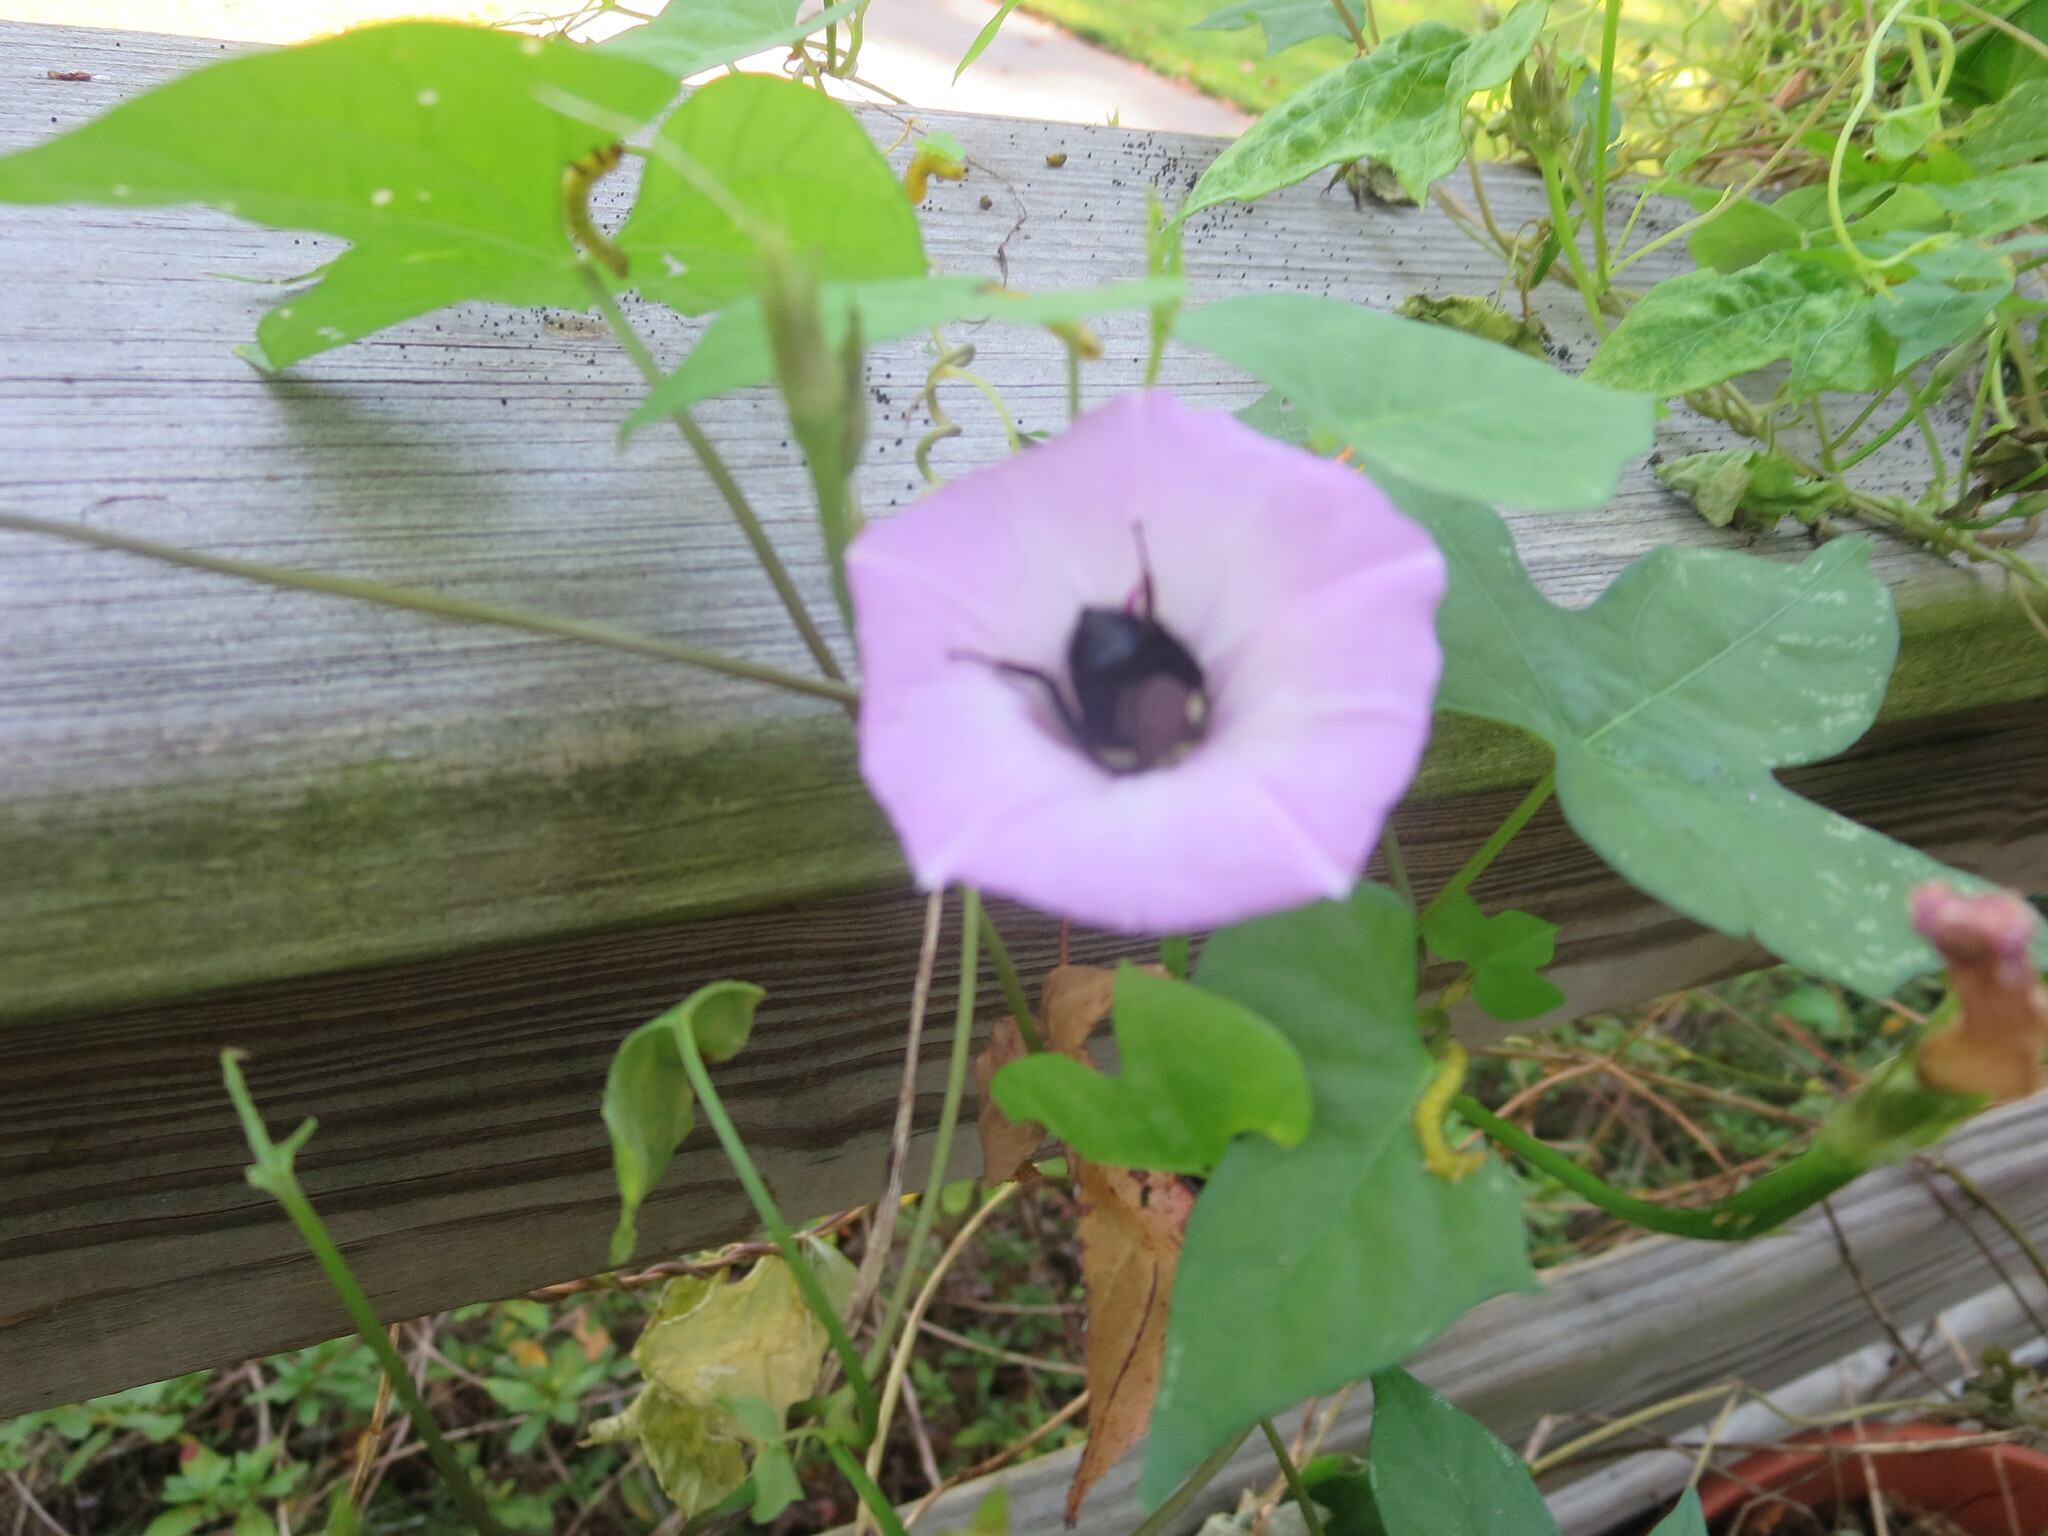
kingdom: Animalia
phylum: Arthropoda
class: Insecta
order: Hymenoptera
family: Apidae
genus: Bombus
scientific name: Bombus impatiens
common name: Common eastern bumble bee
